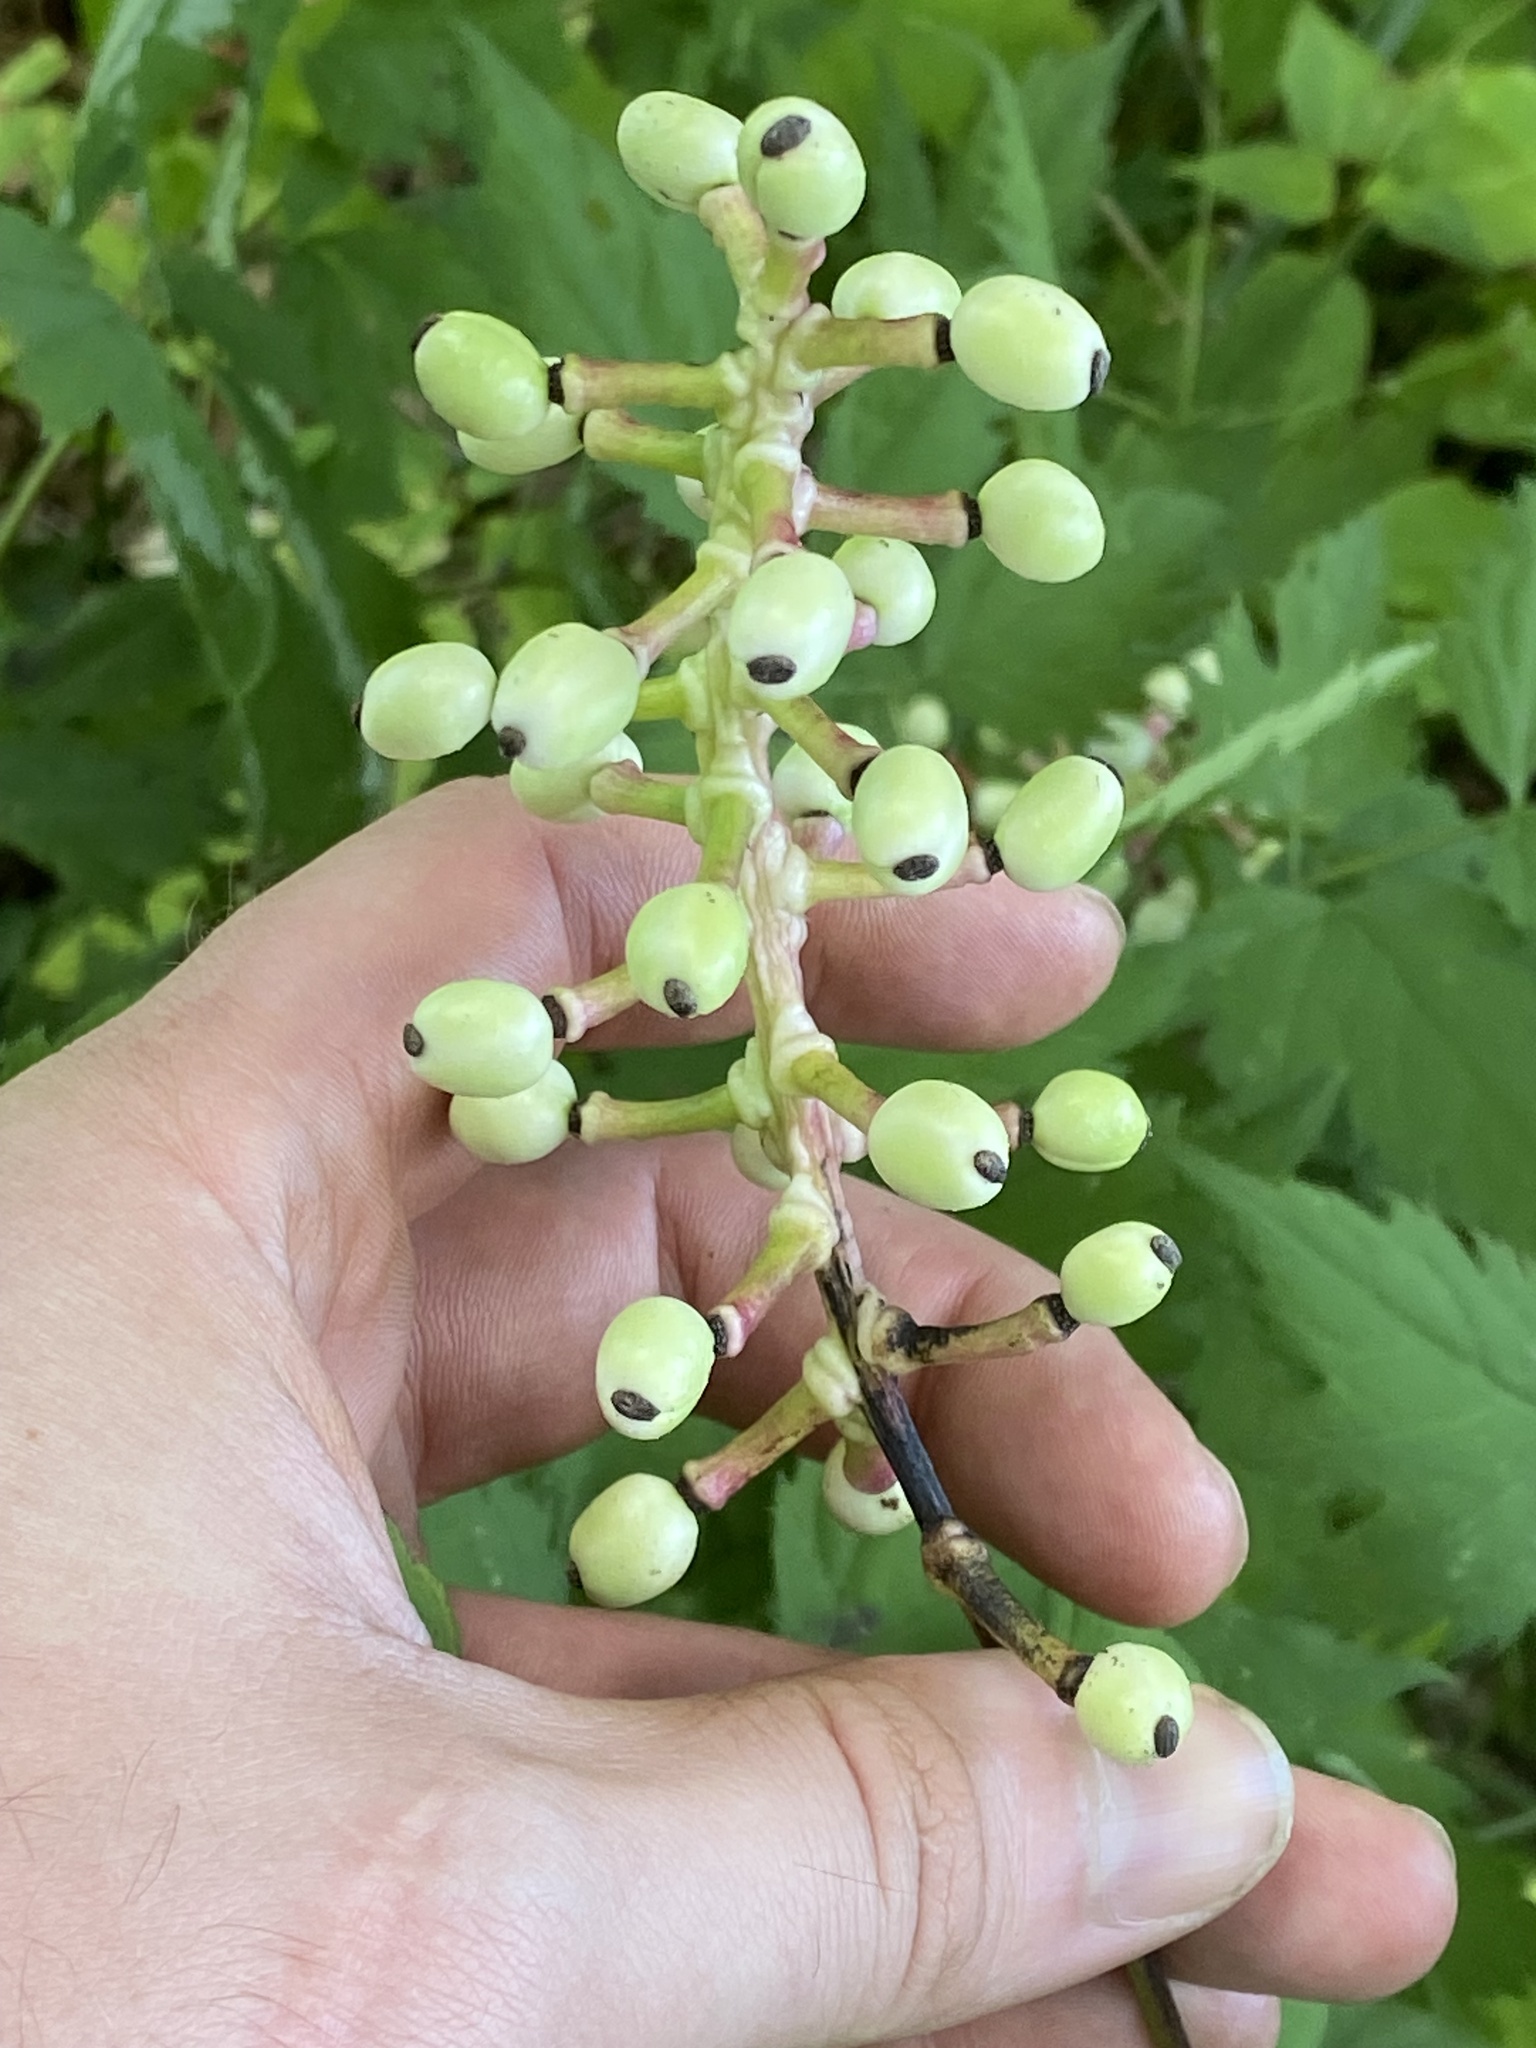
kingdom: Plantae
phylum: Tracheophyta
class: Magnoliopsida
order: Ranunculales
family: Ranunculaceae
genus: Actaea
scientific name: Actaea pachypoda
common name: Doll's-eyes
